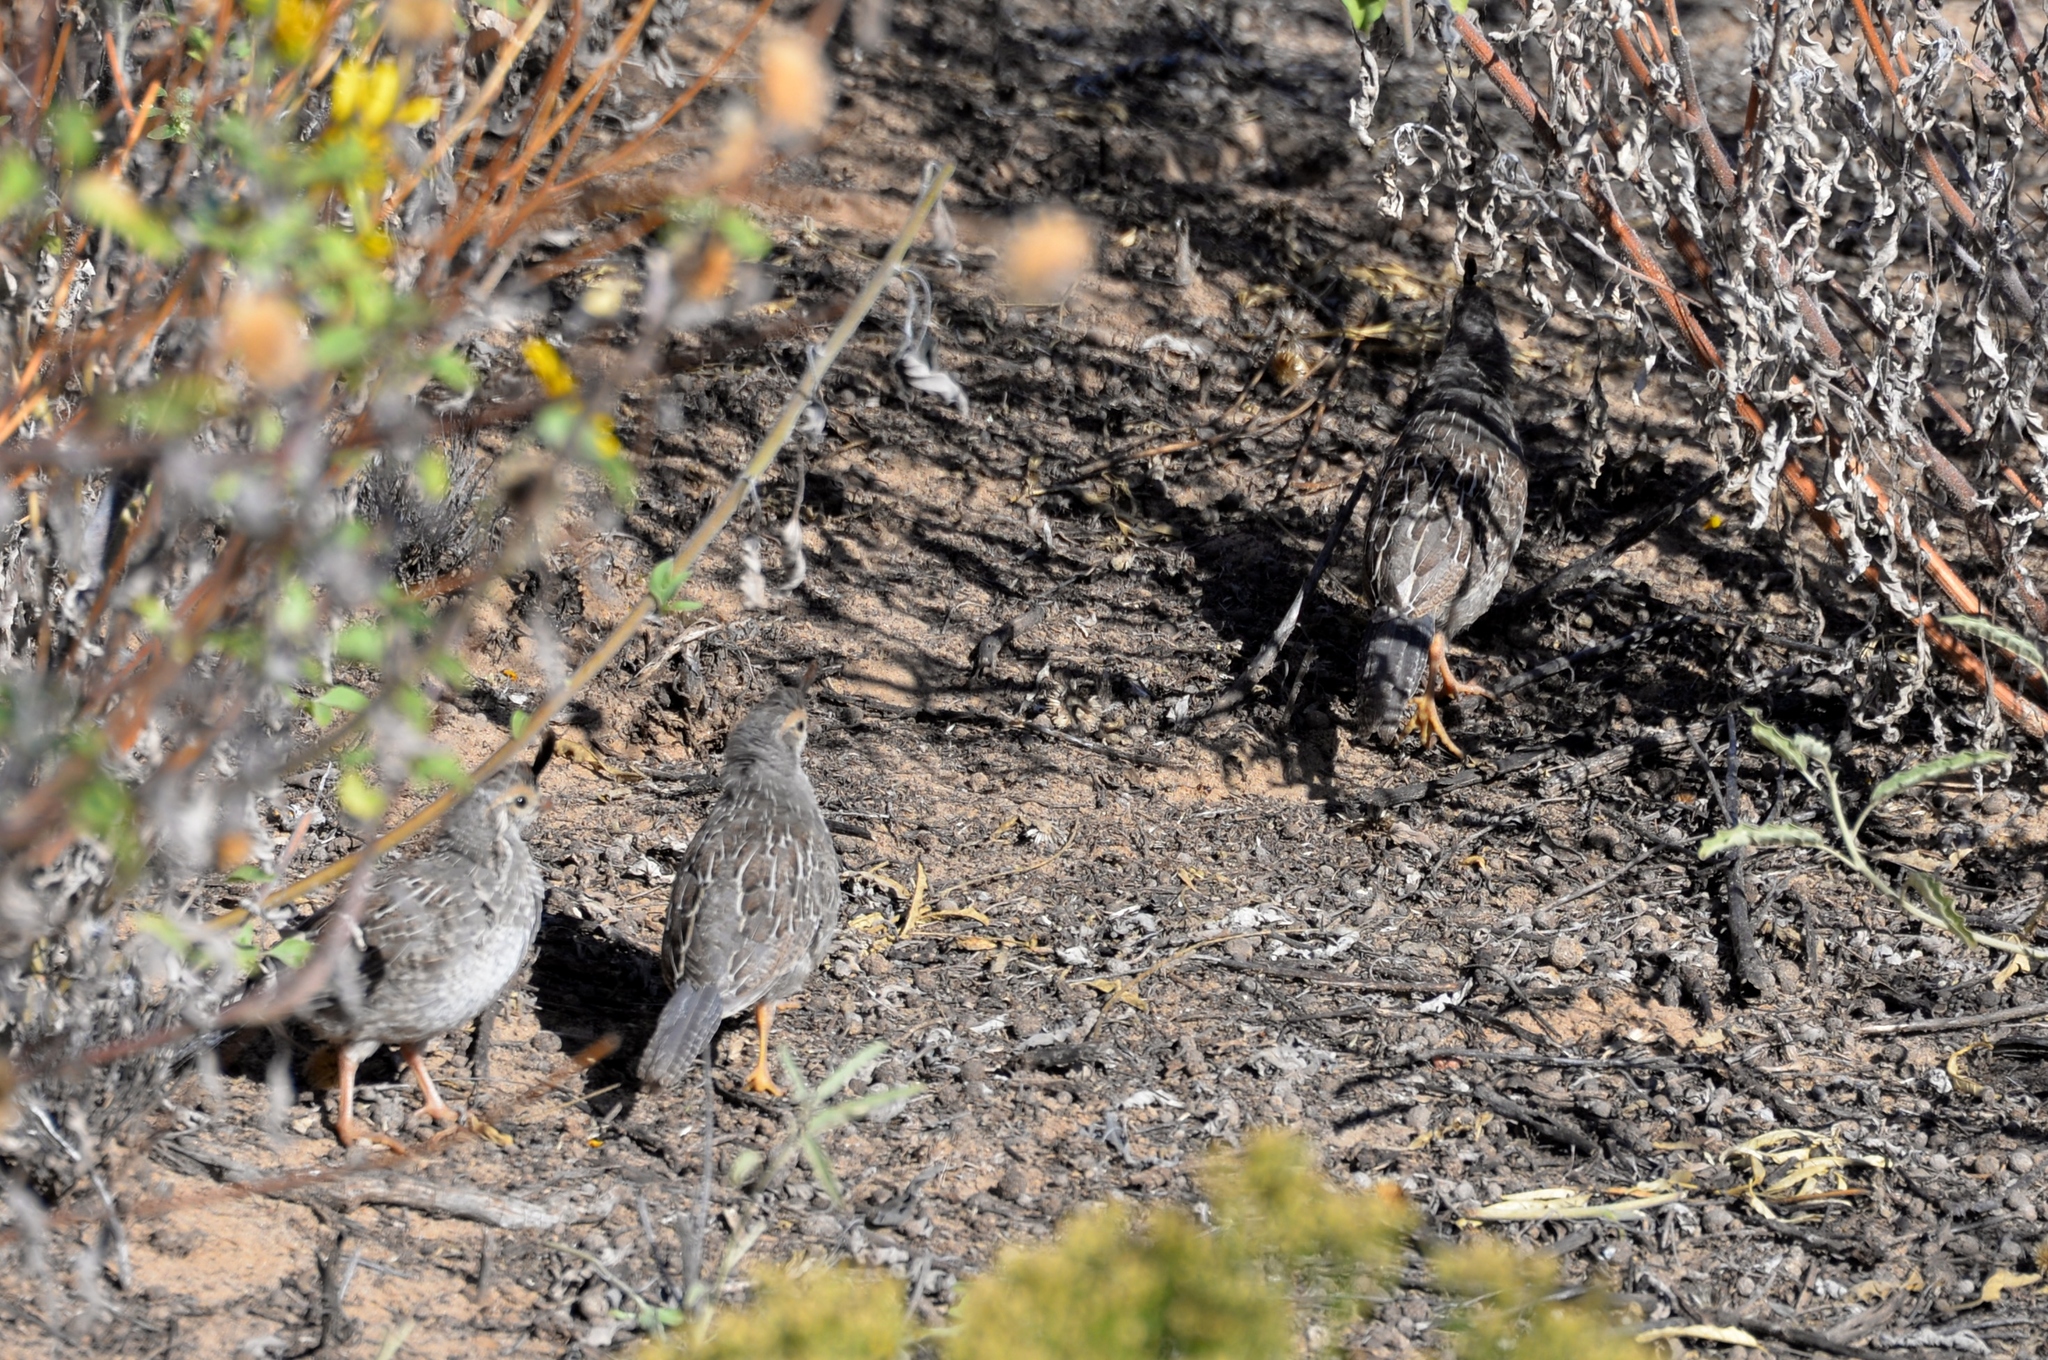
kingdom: Animalia
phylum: Chordata
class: Aves
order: Galliformes
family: Odontophoridae
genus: Callipepla
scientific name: Callipepla gambelii
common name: Gambel's quail
